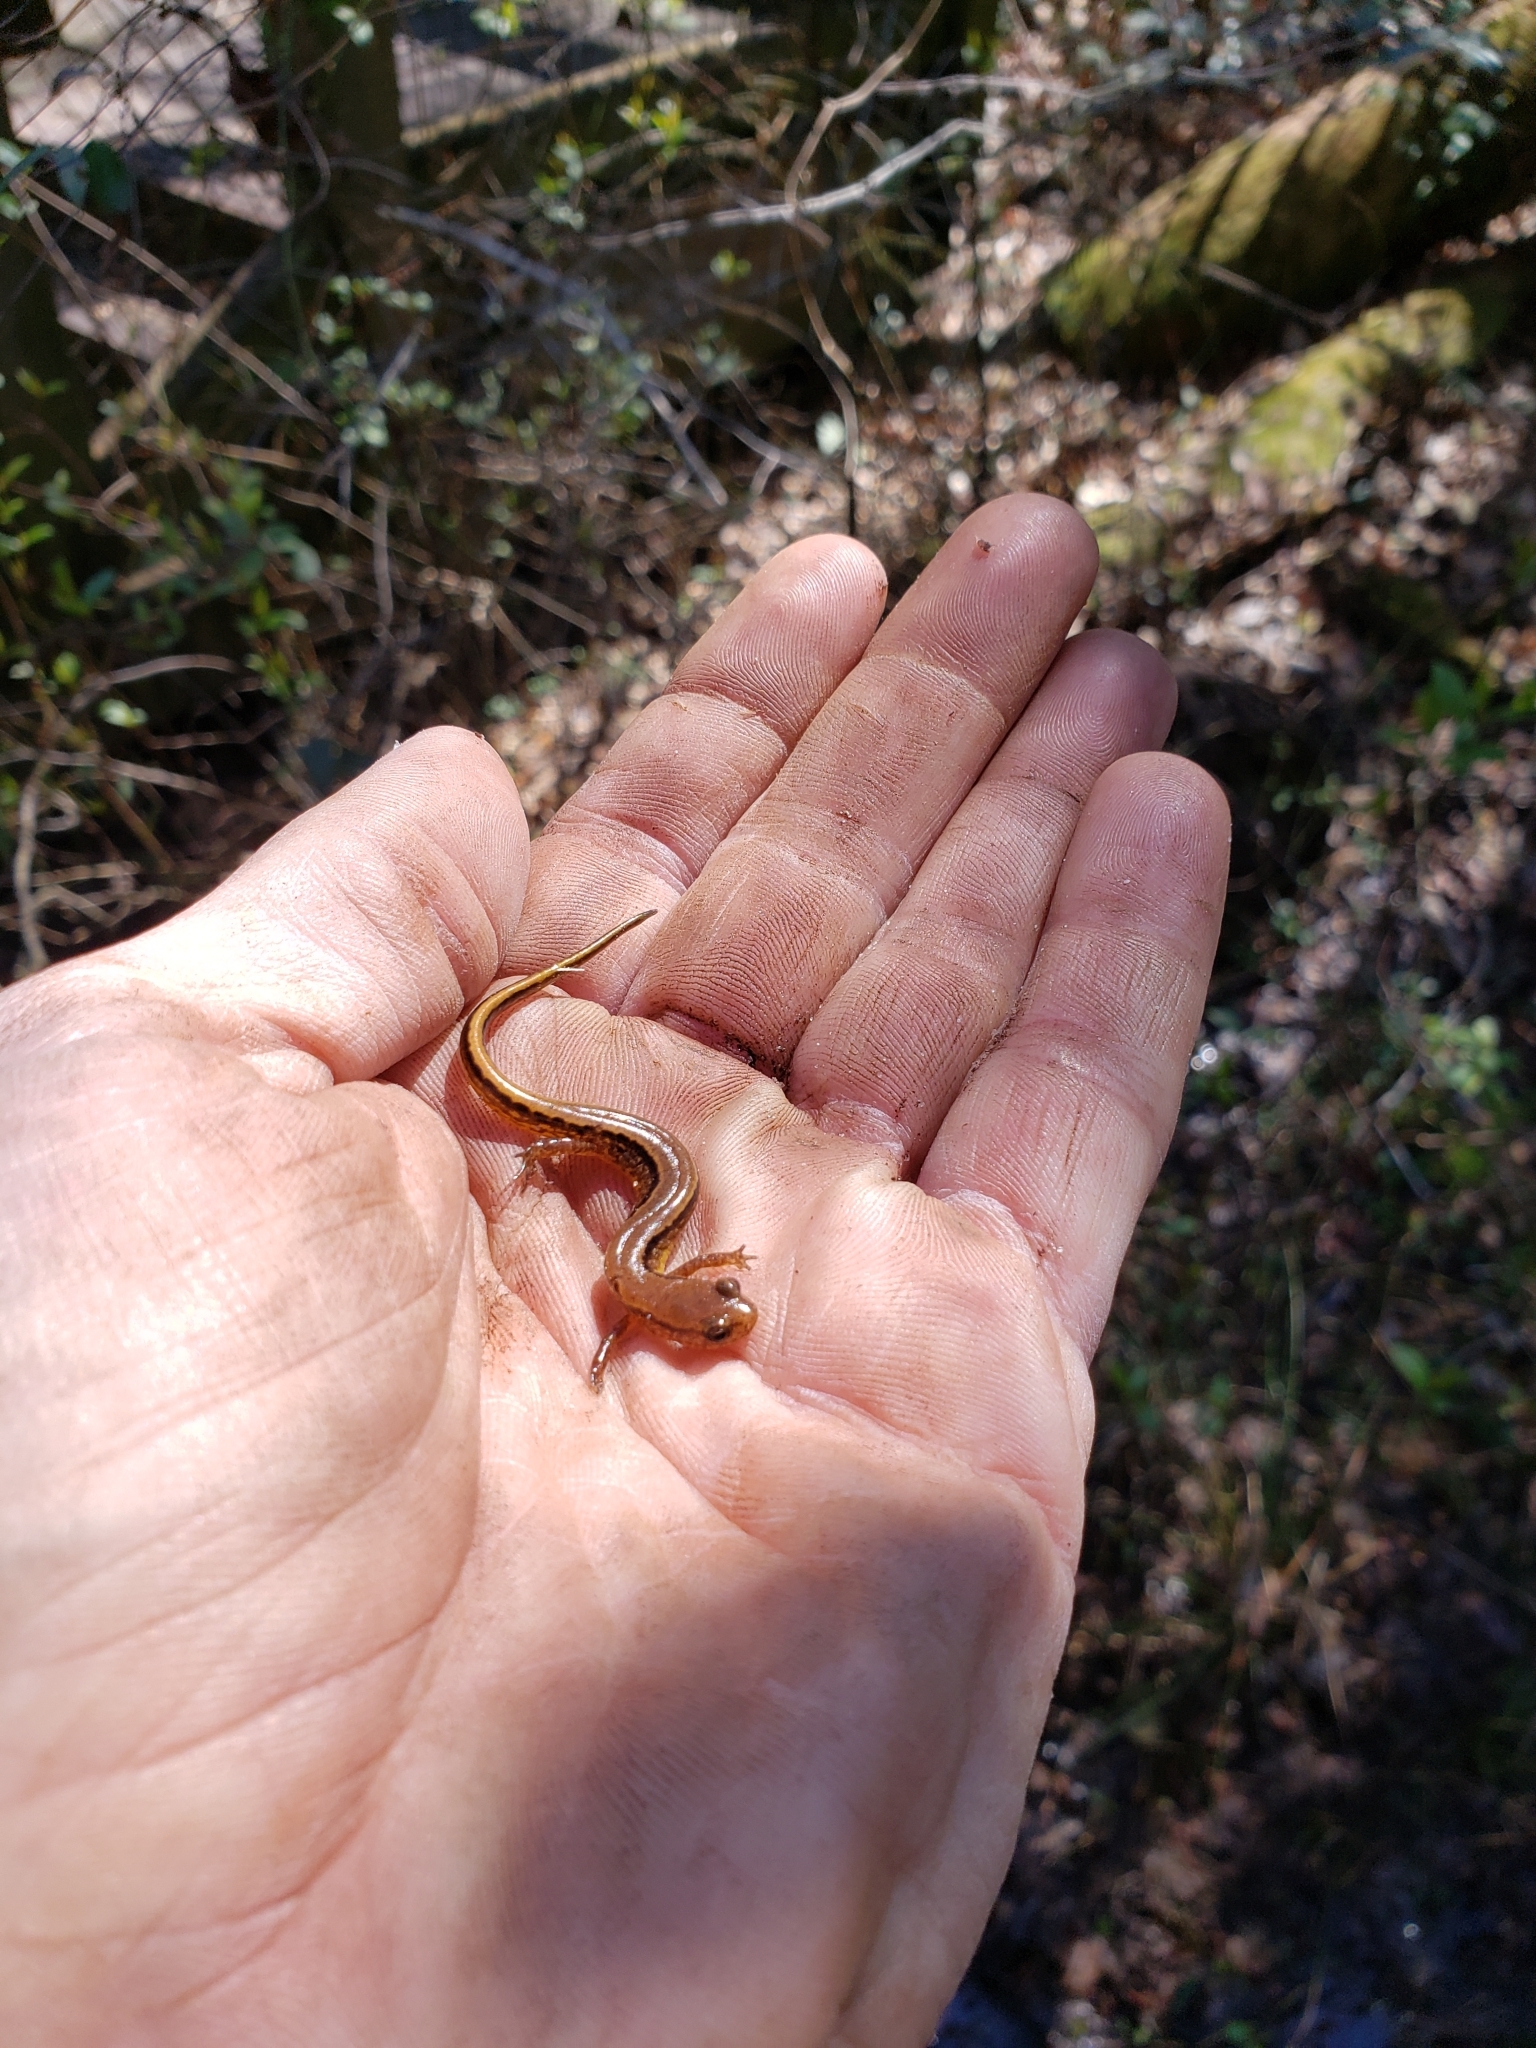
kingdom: Animalia
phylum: Chordata
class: Amphibia
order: Caudata
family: Plethodontidae
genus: Eurycea
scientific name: Eurycea cirrigera
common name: Southern two-lined salamander
